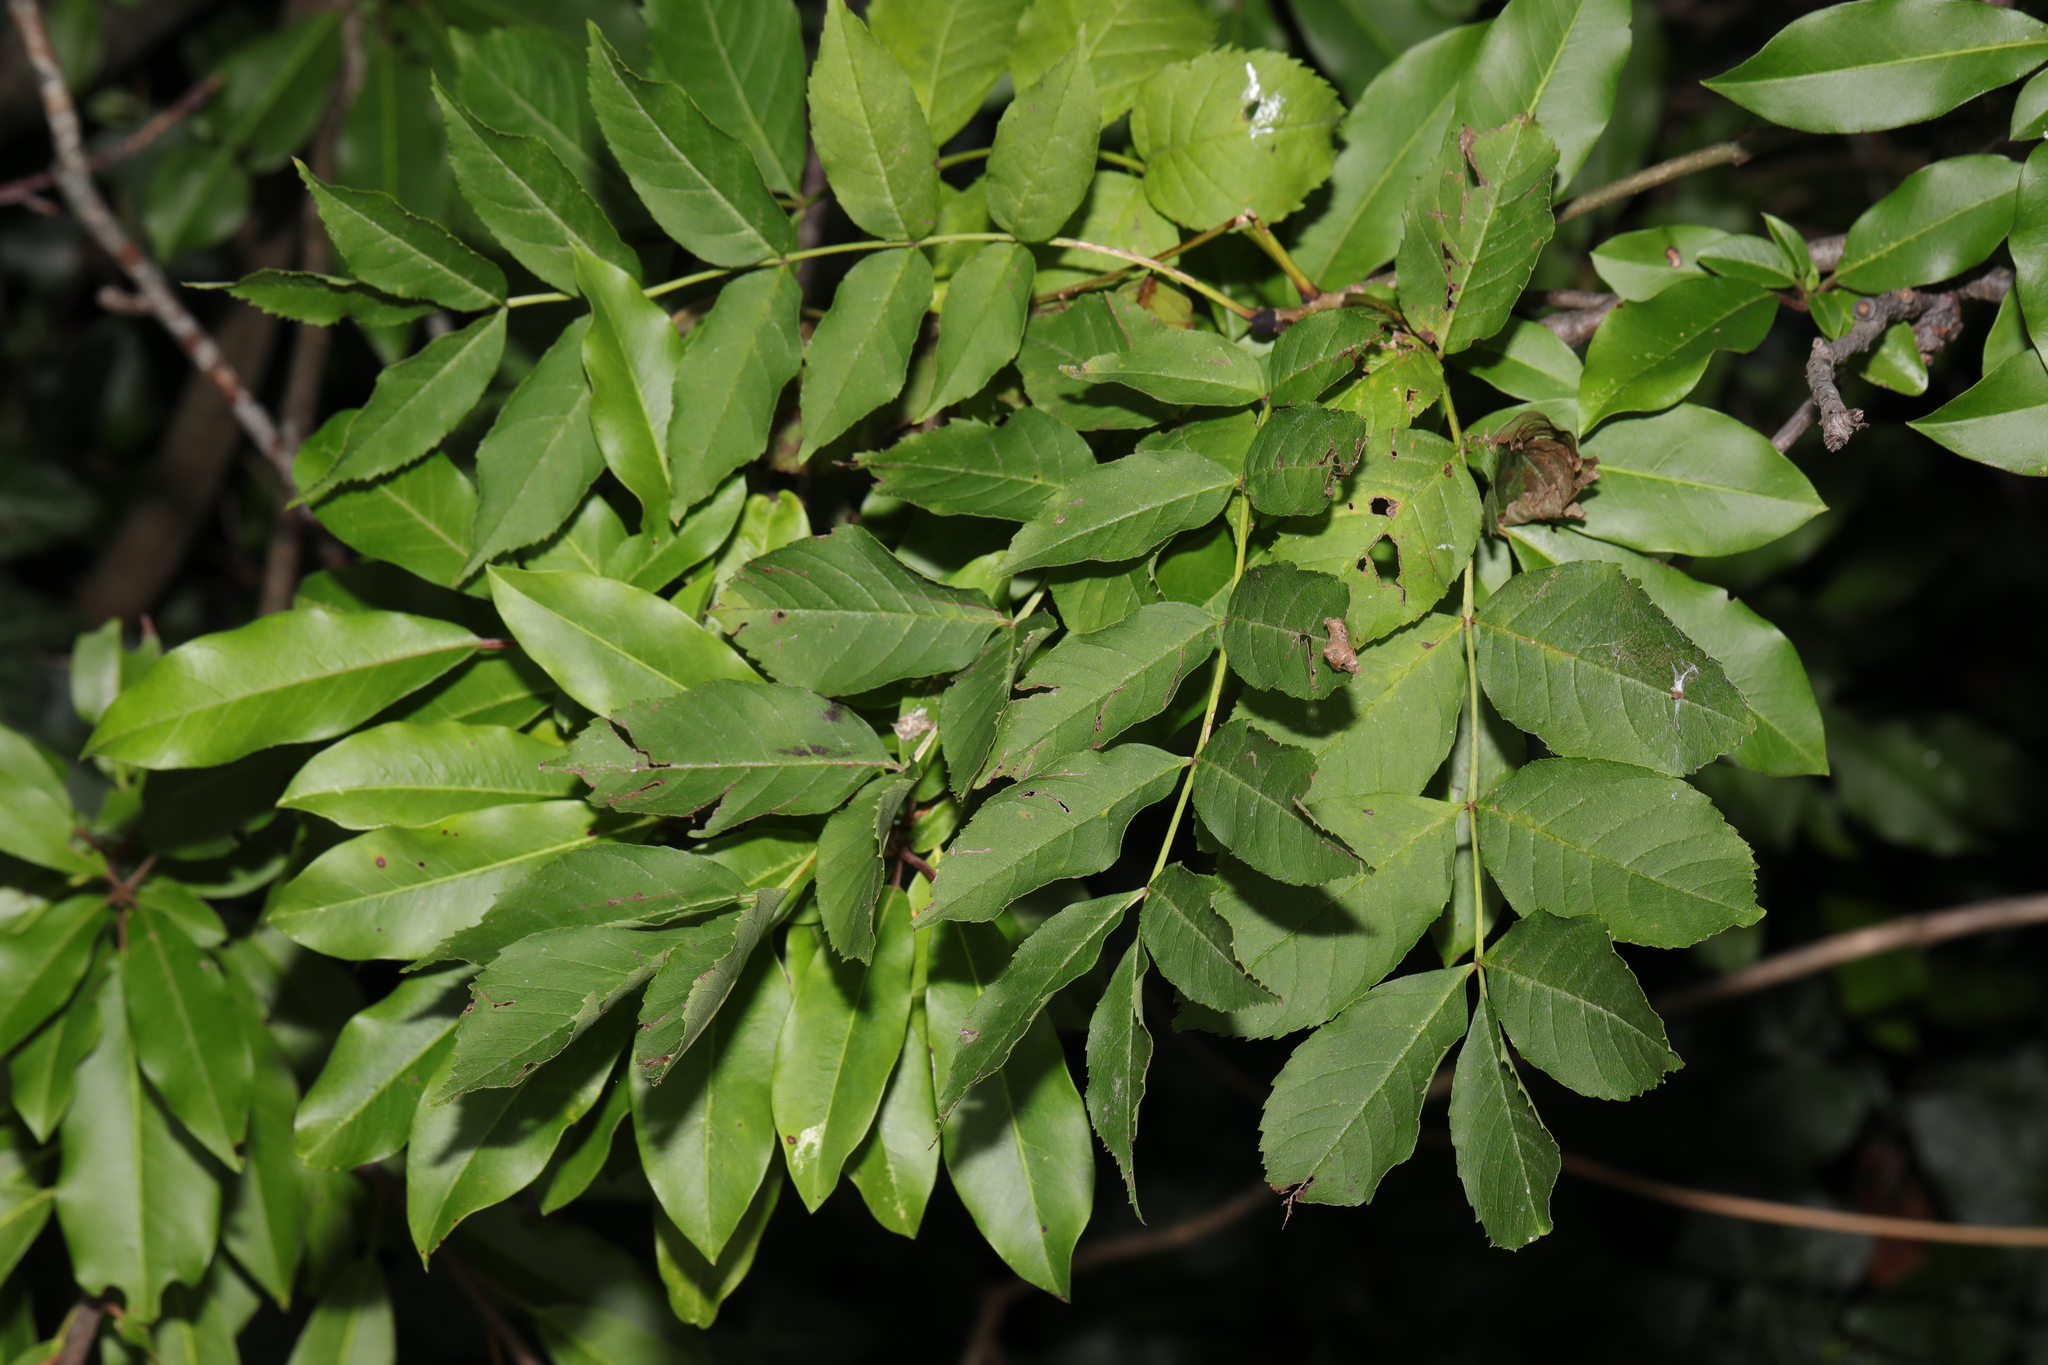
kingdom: Plantae
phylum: Tracheophyta
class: Magnoliopsida
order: Lamiales
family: Oleaceae
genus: Fraxinus
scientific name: Fraxinus excelsior
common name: European ash
